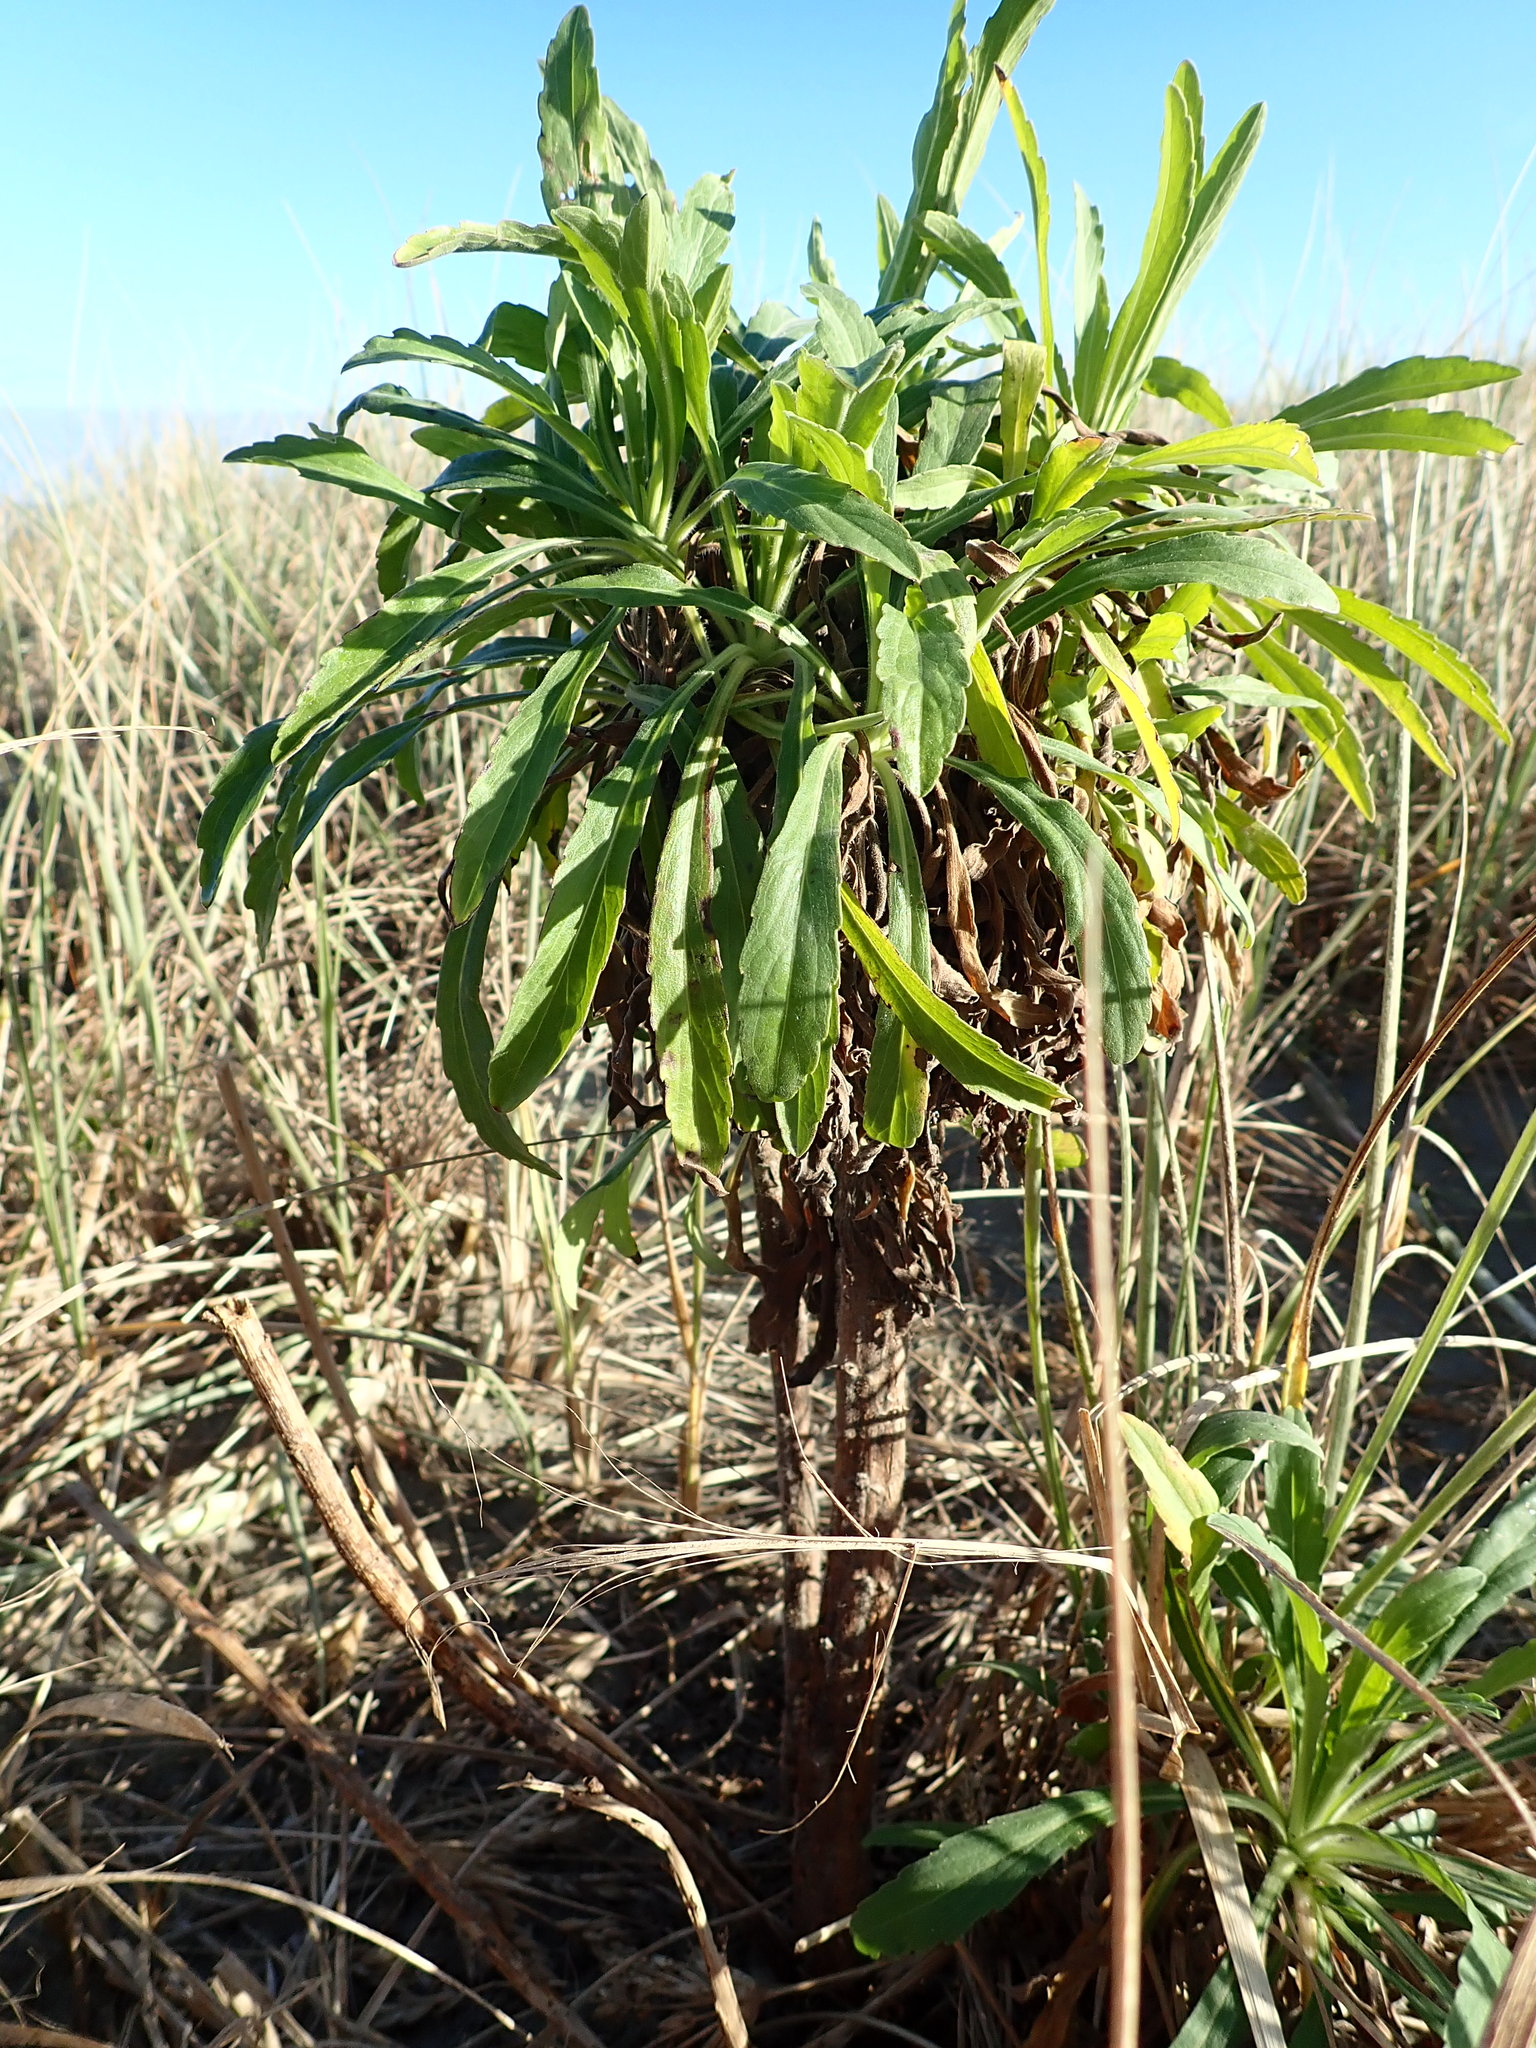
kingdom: Plantae
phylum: Tracheophyta
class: Magnoliopsida
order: Asterales
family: Asteraceae
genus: Erigeron
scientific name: Erigeron sumatrensis
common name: Daisy
